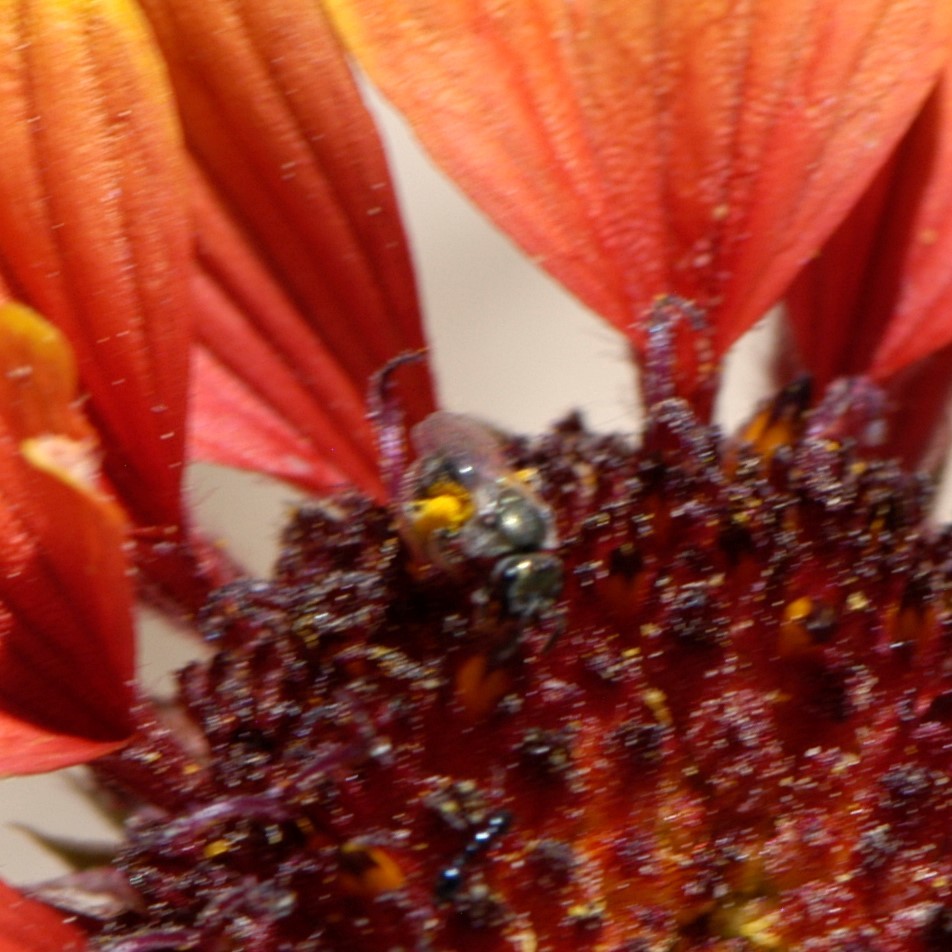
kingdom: Animalia
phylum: Arthropoda
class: Insecta
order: Hymenoptera
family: Halictidae
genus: Halictus
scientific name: Halictus tripartitus
